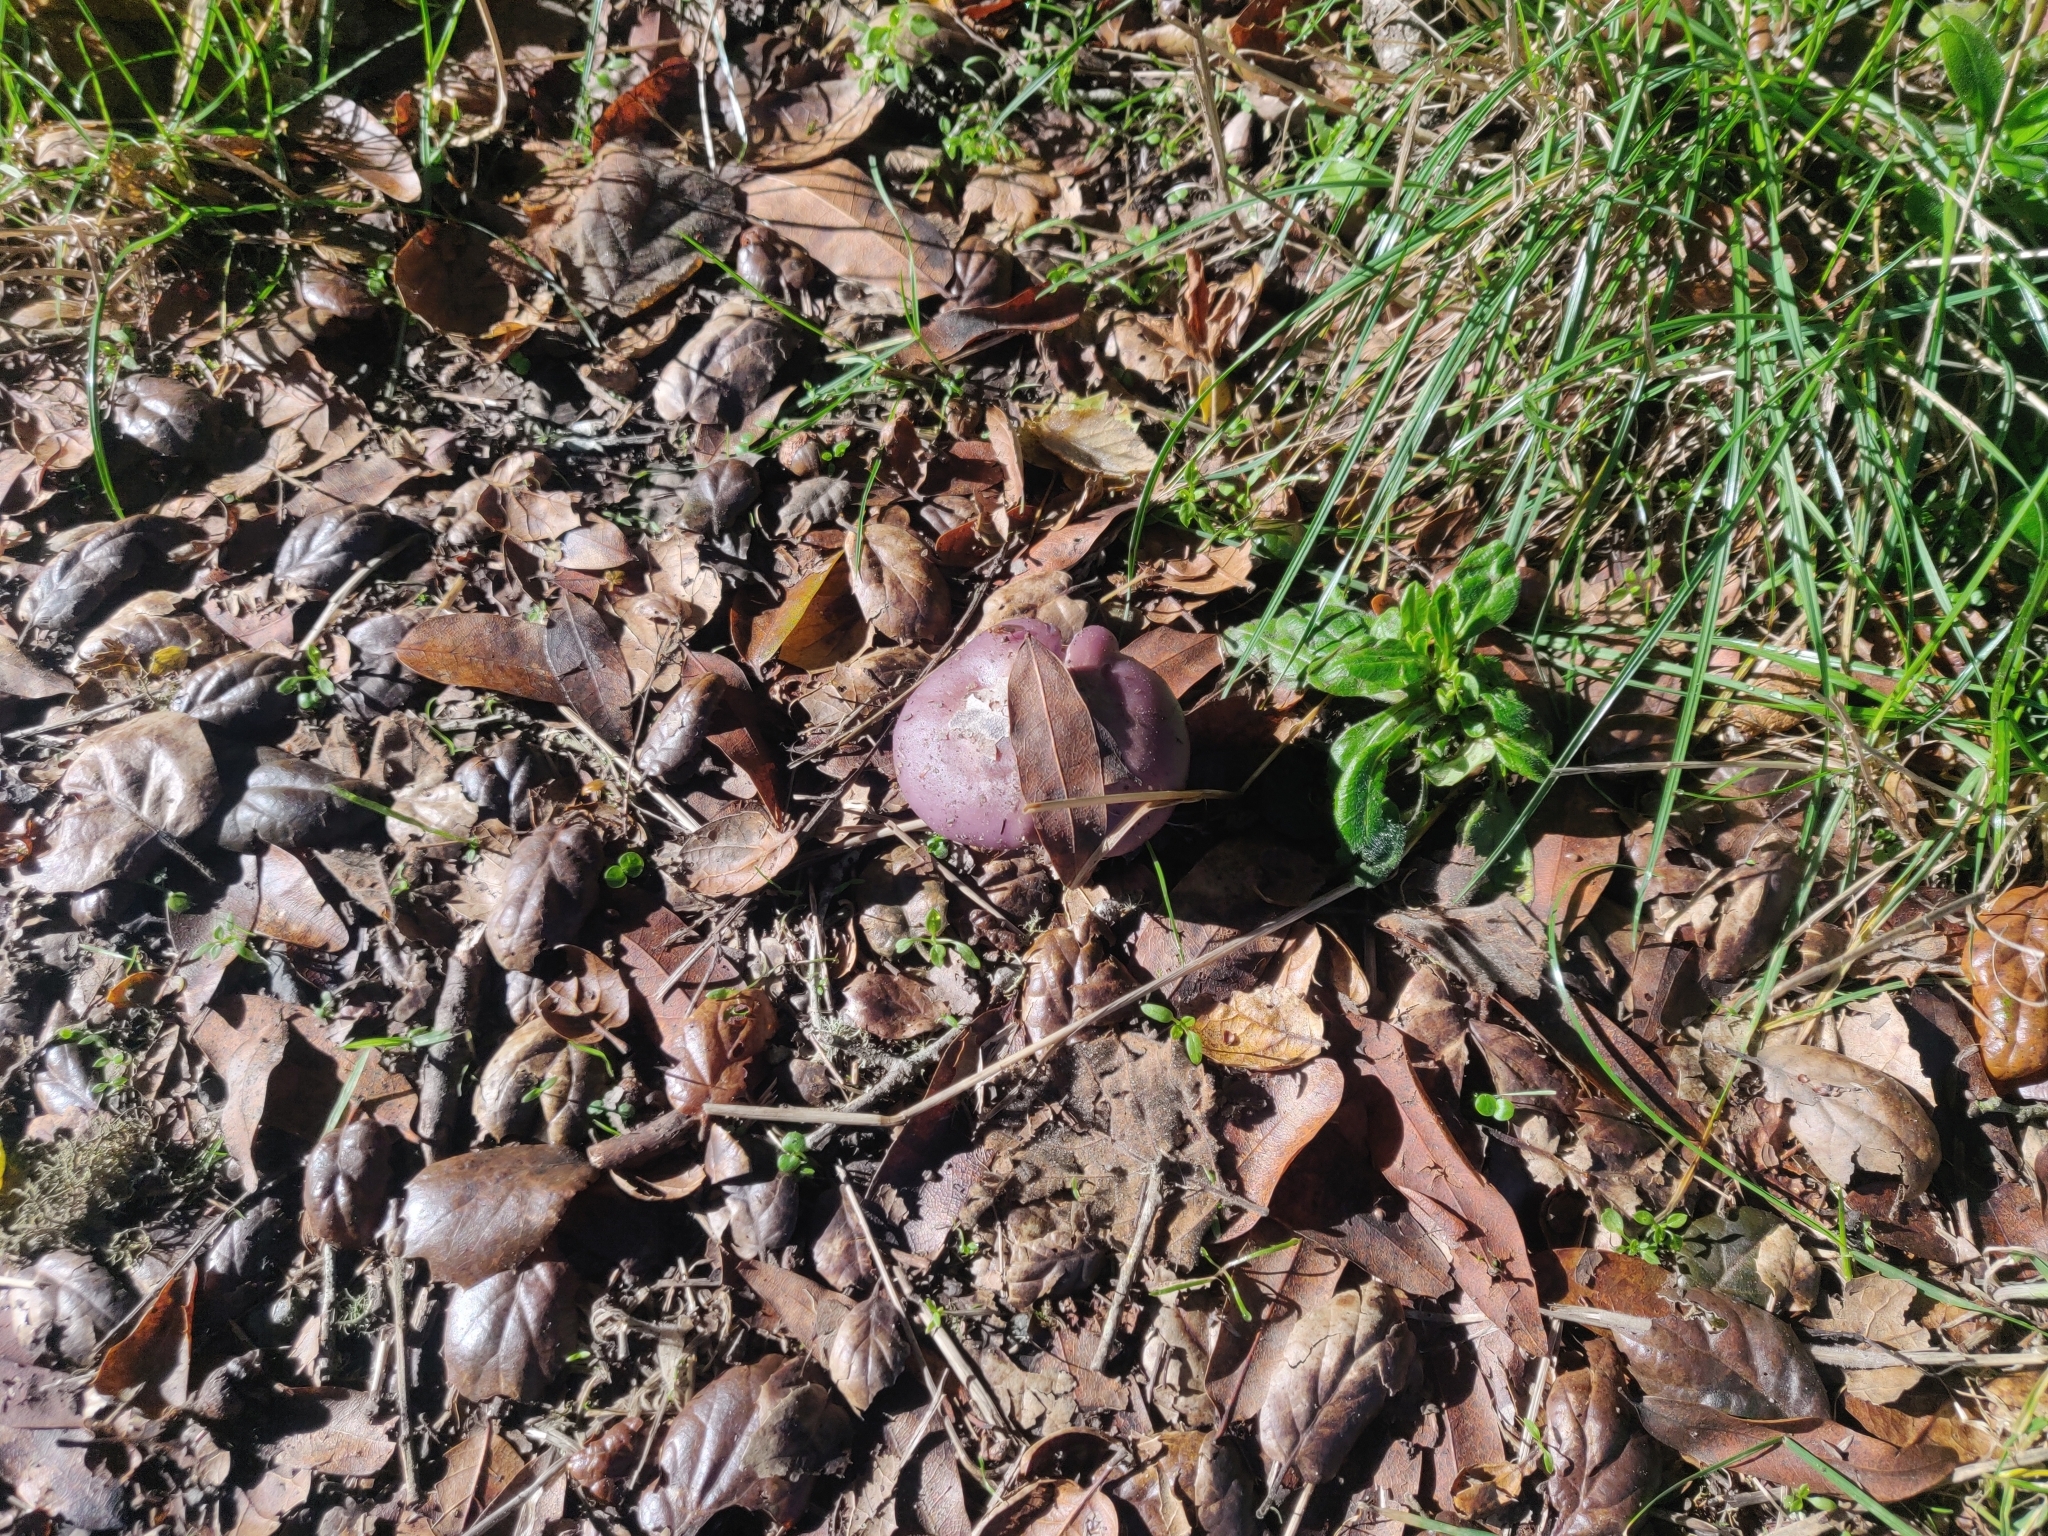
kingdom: Fungi
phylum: Basidiomycota
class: Agaricomycetes
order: Agaricales
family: Tricholomataceae
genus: Collybia
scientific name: Collybia
